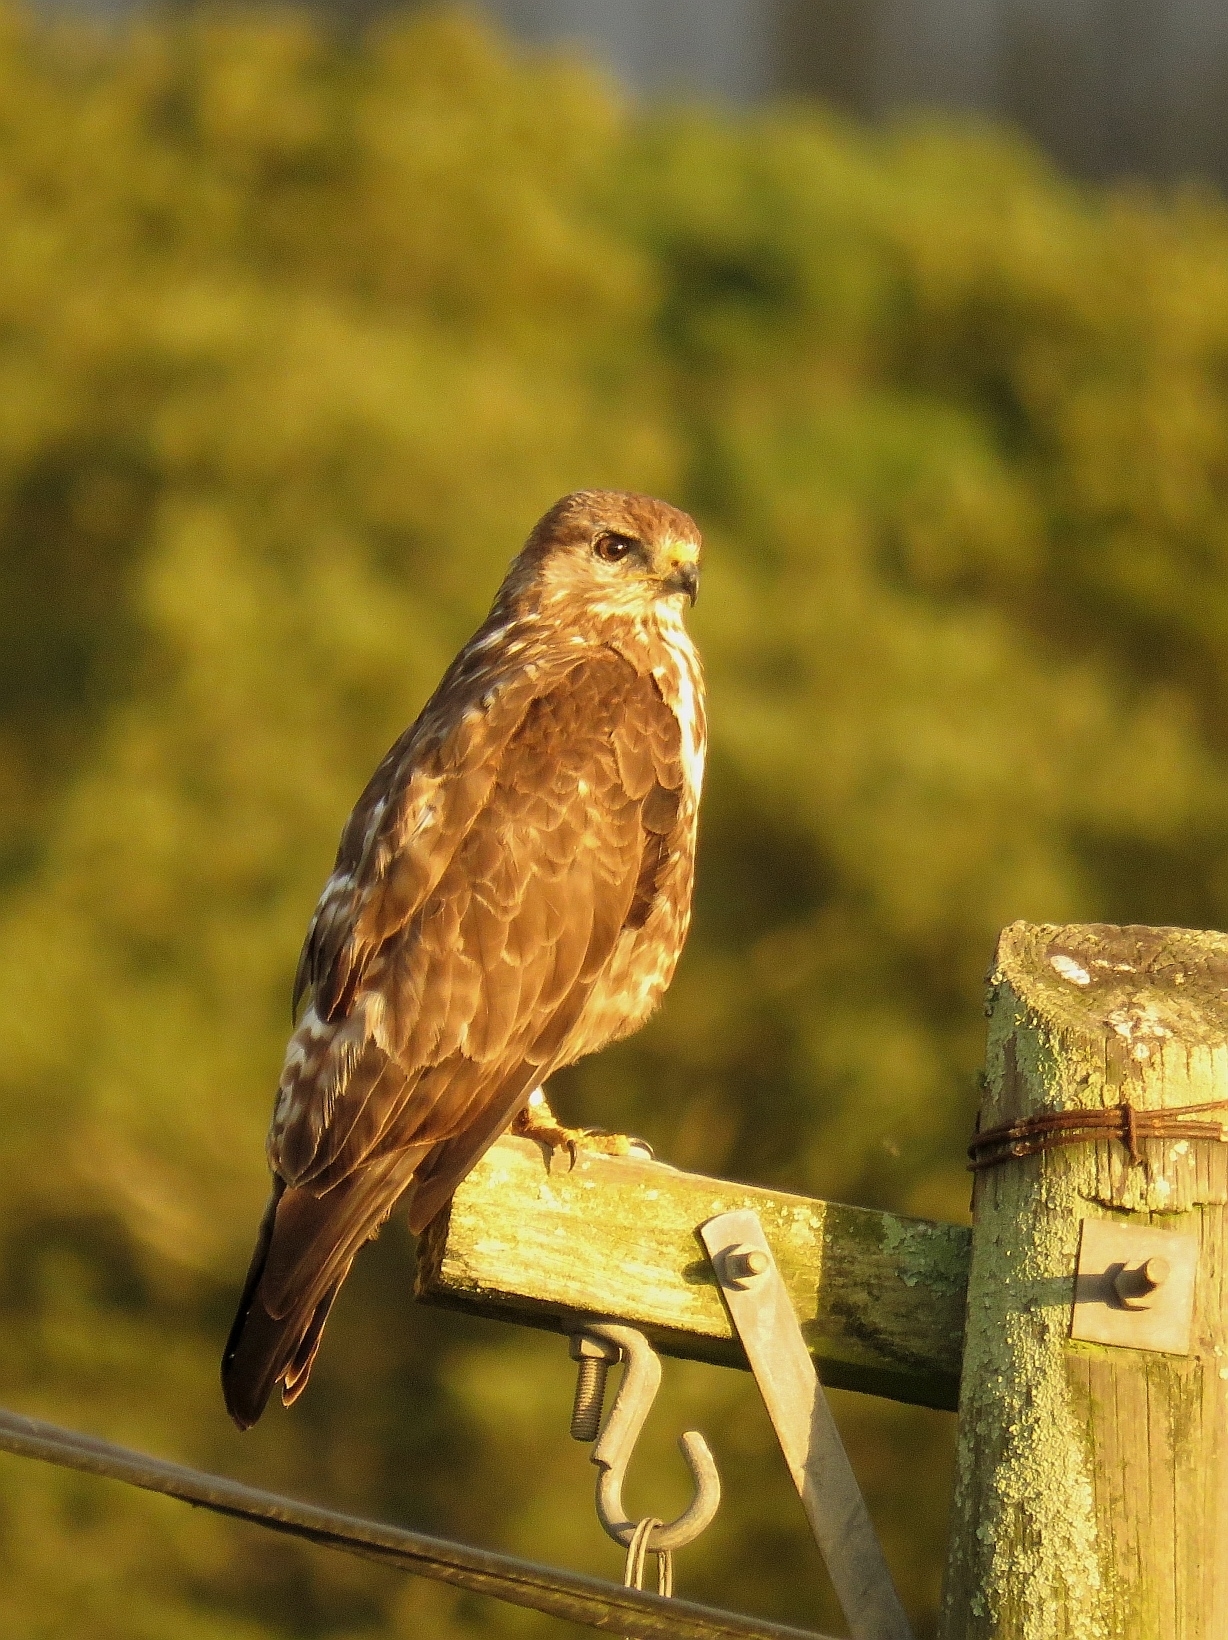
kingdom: Animalia
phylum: Chordata
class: Aves
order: Accipitriformes
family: Accipitridae
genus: Buteo
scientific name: Buteo trizonatus
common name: Forest buzzard
